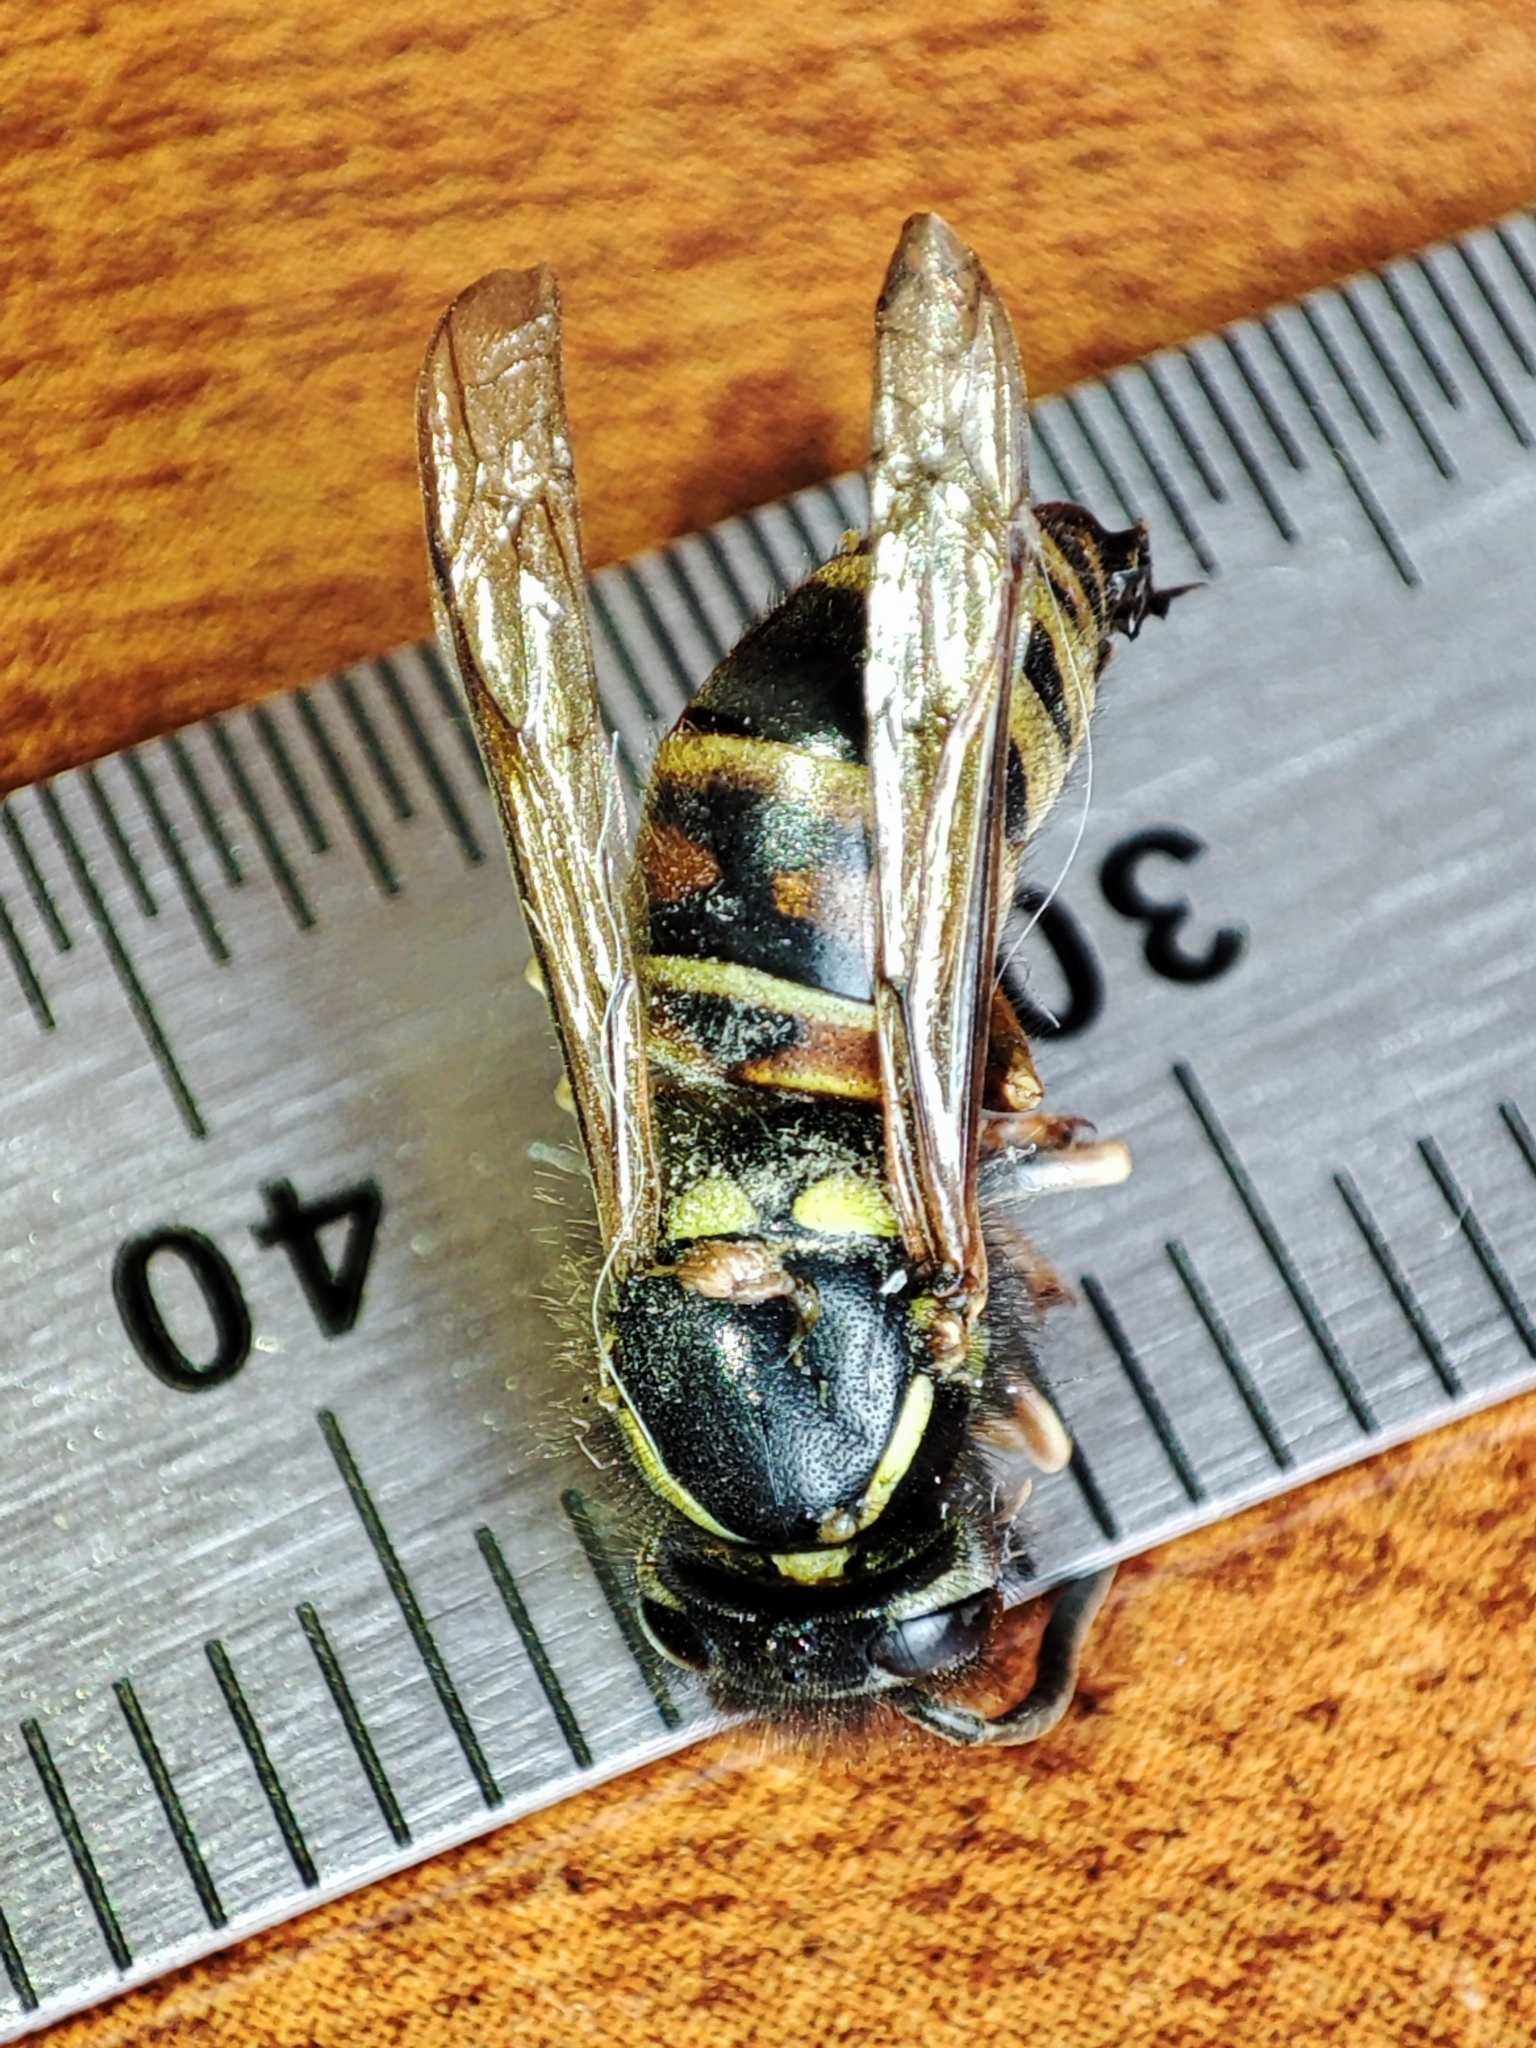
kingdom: Animalia
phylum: Arthropoda
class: Insecta
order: Hymenoptera
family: Vespidae
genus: Vespula
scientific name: Vespula rufa
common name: Red wasp
